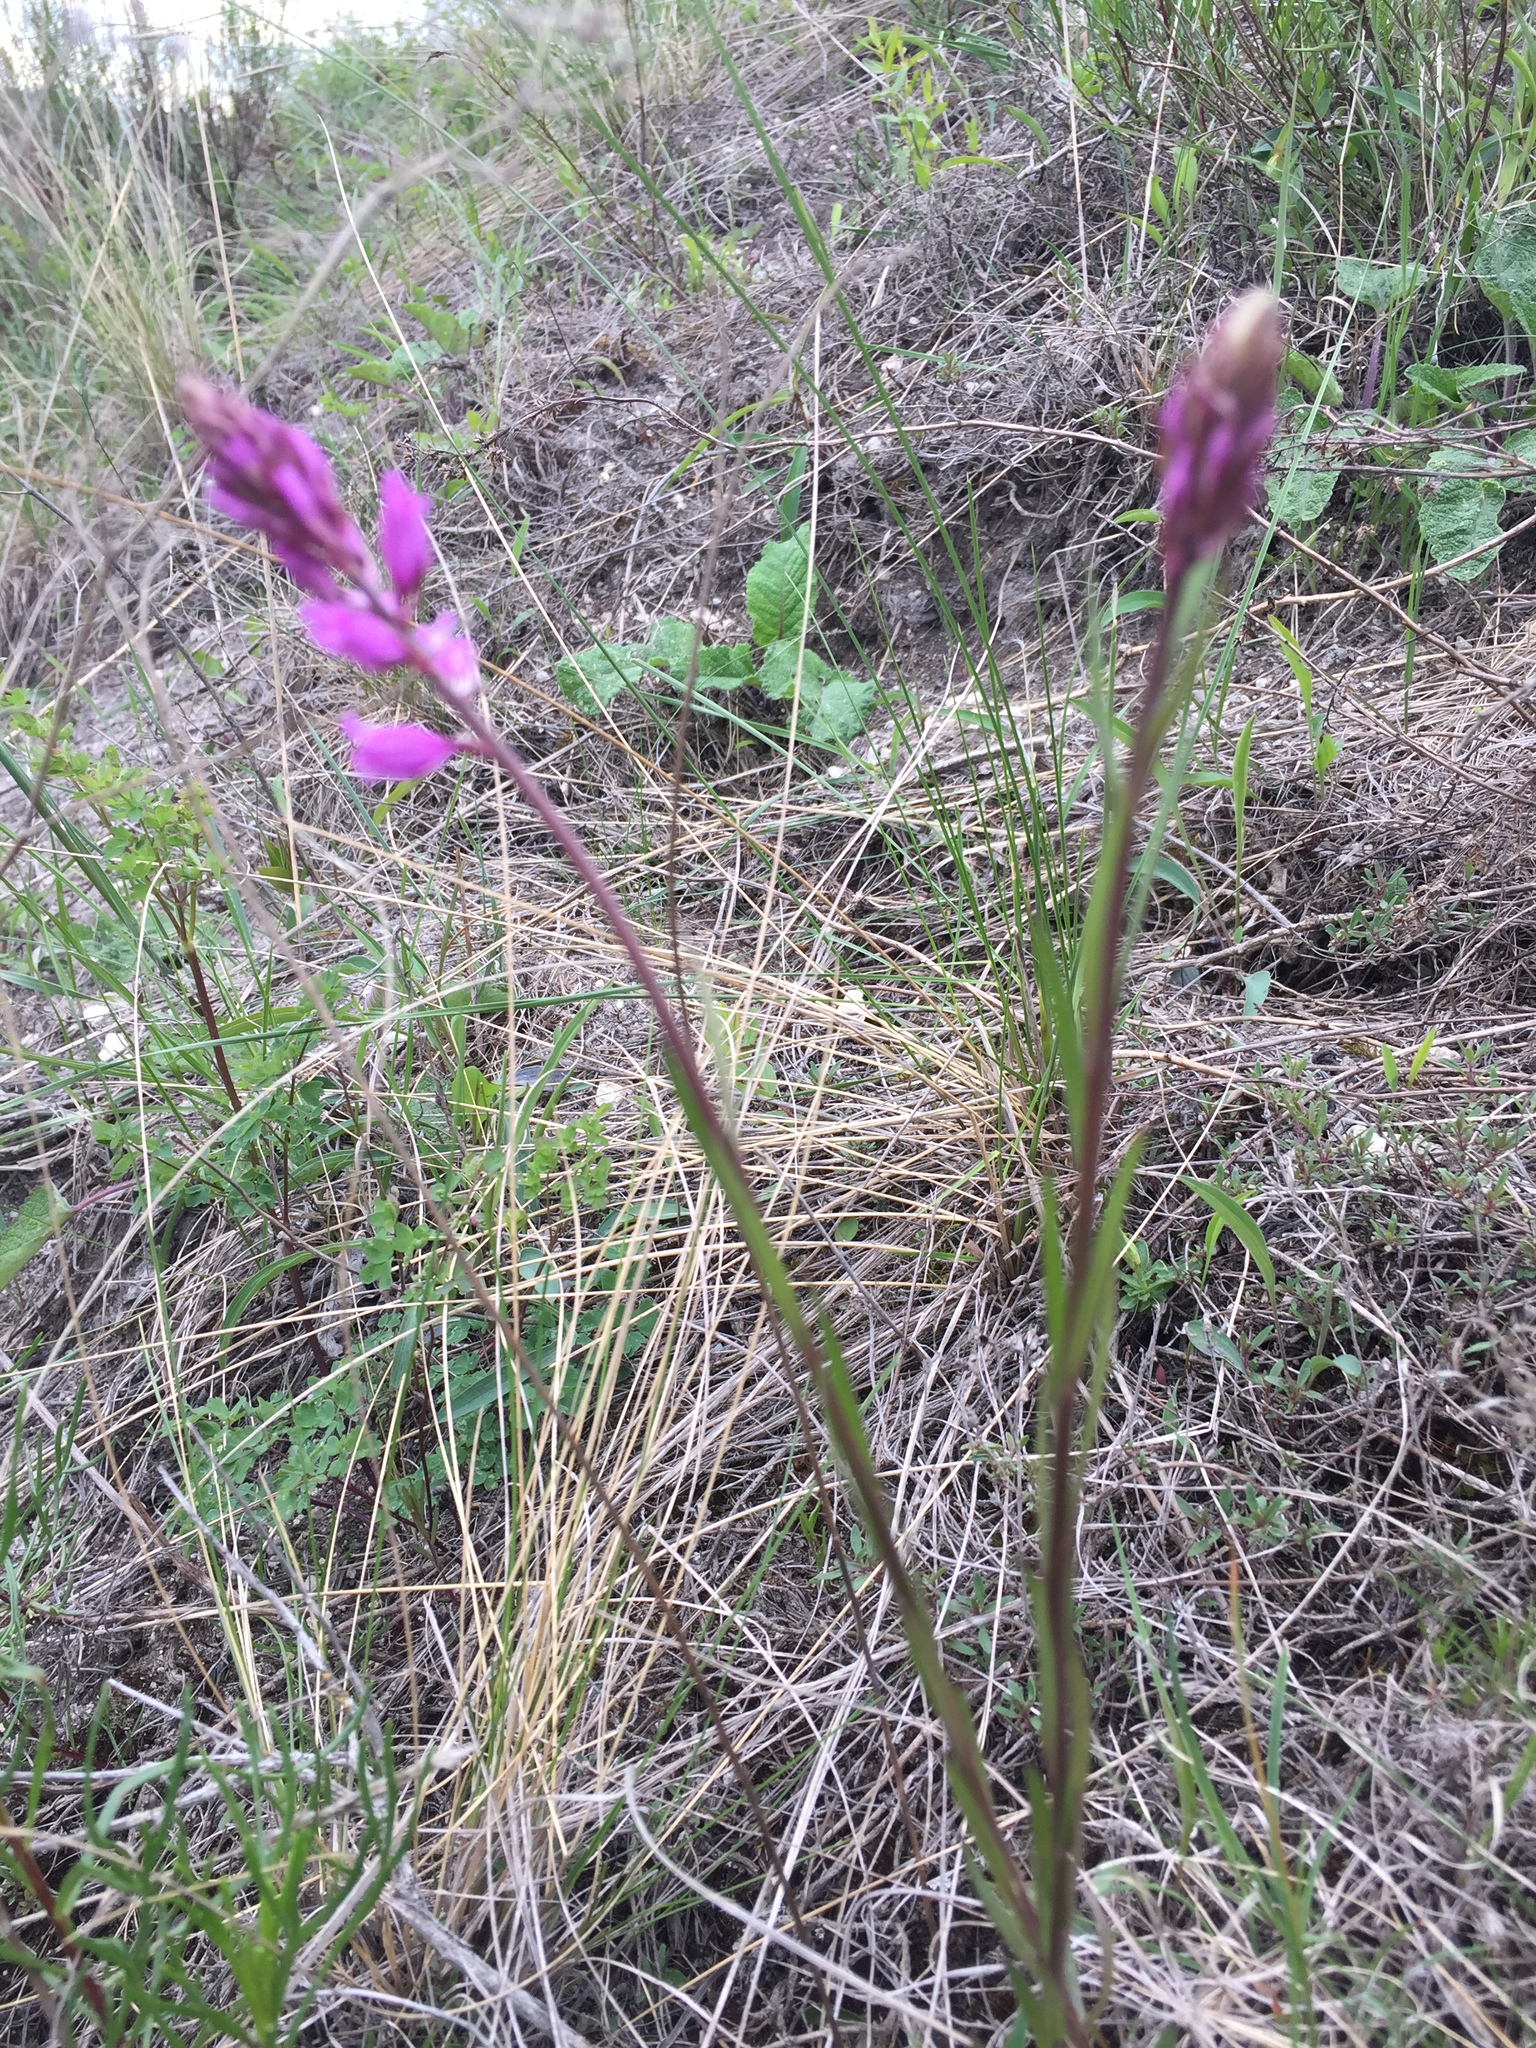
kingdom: Plantae
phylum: Tracheophyta
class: Magnoliopsida
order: Fabales
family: Polygalaceae
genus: Polygala
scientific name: Polygala nicaeensis
